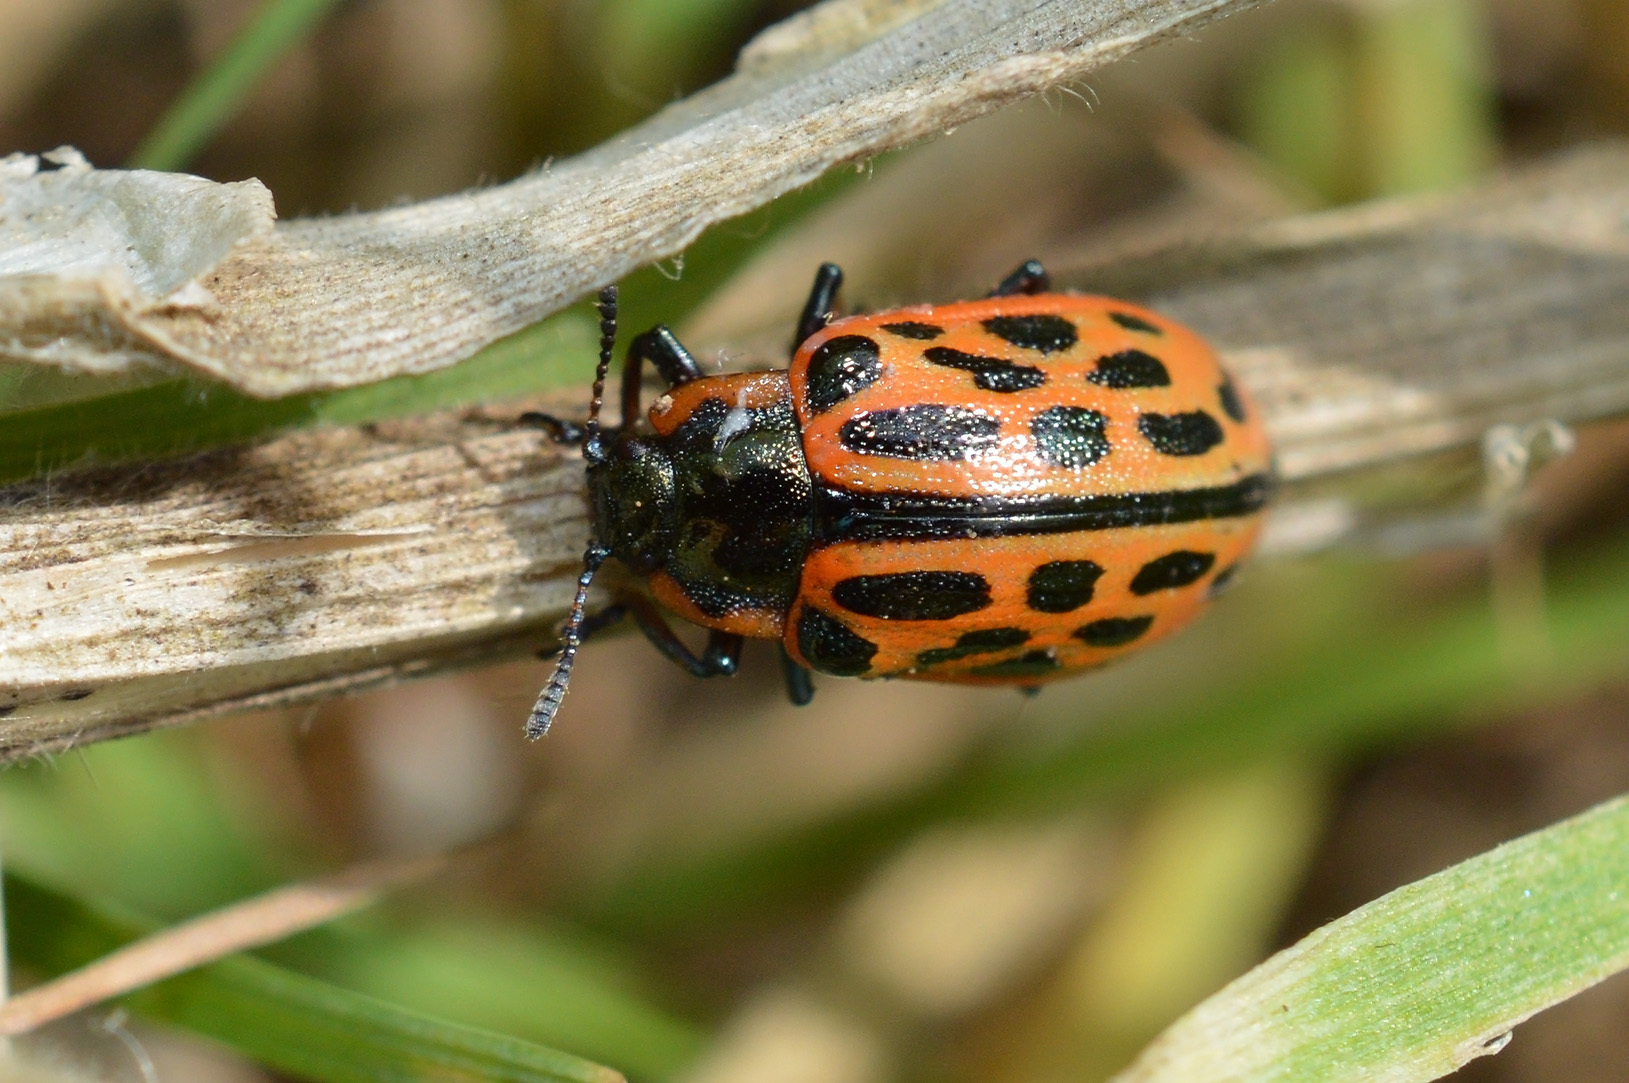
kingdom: Animalia
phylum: Arthropoda
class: Insecta
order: Coleoptera
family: Chrysomelidae
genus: Chrysomela
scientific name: Chrysomela vigintipunctata
